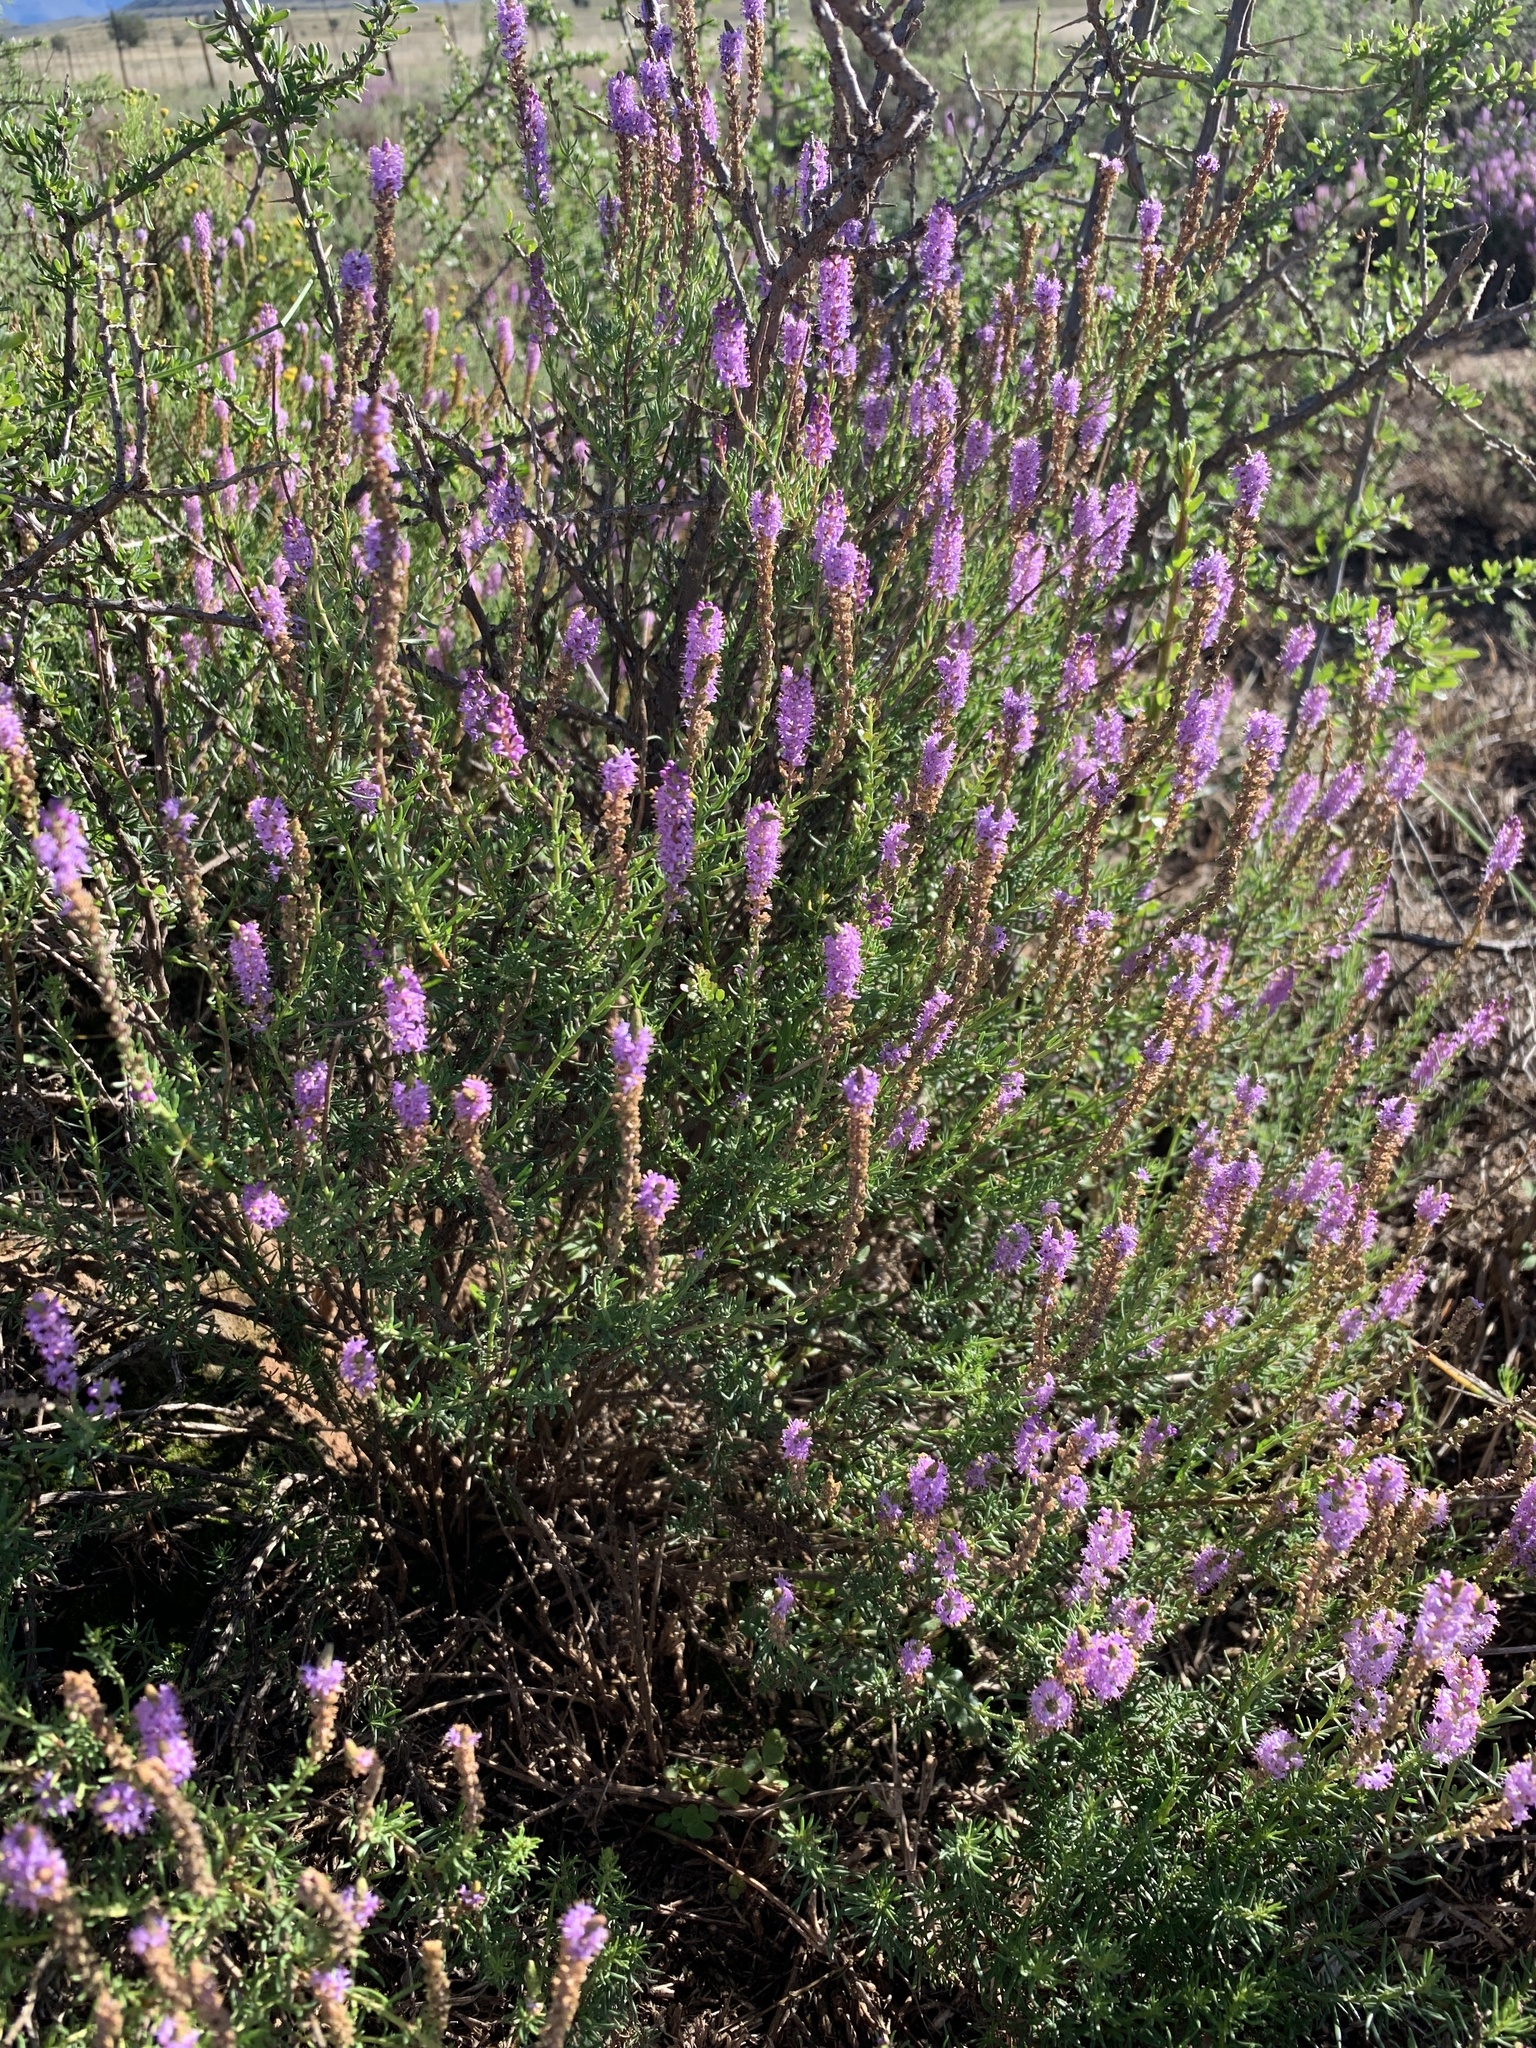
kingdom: Plantae
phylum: Tracheophyta
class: Magnoliopsida
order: Lamiales
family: Scrophulariaceae
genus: Selago
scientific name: Selago geniculata
